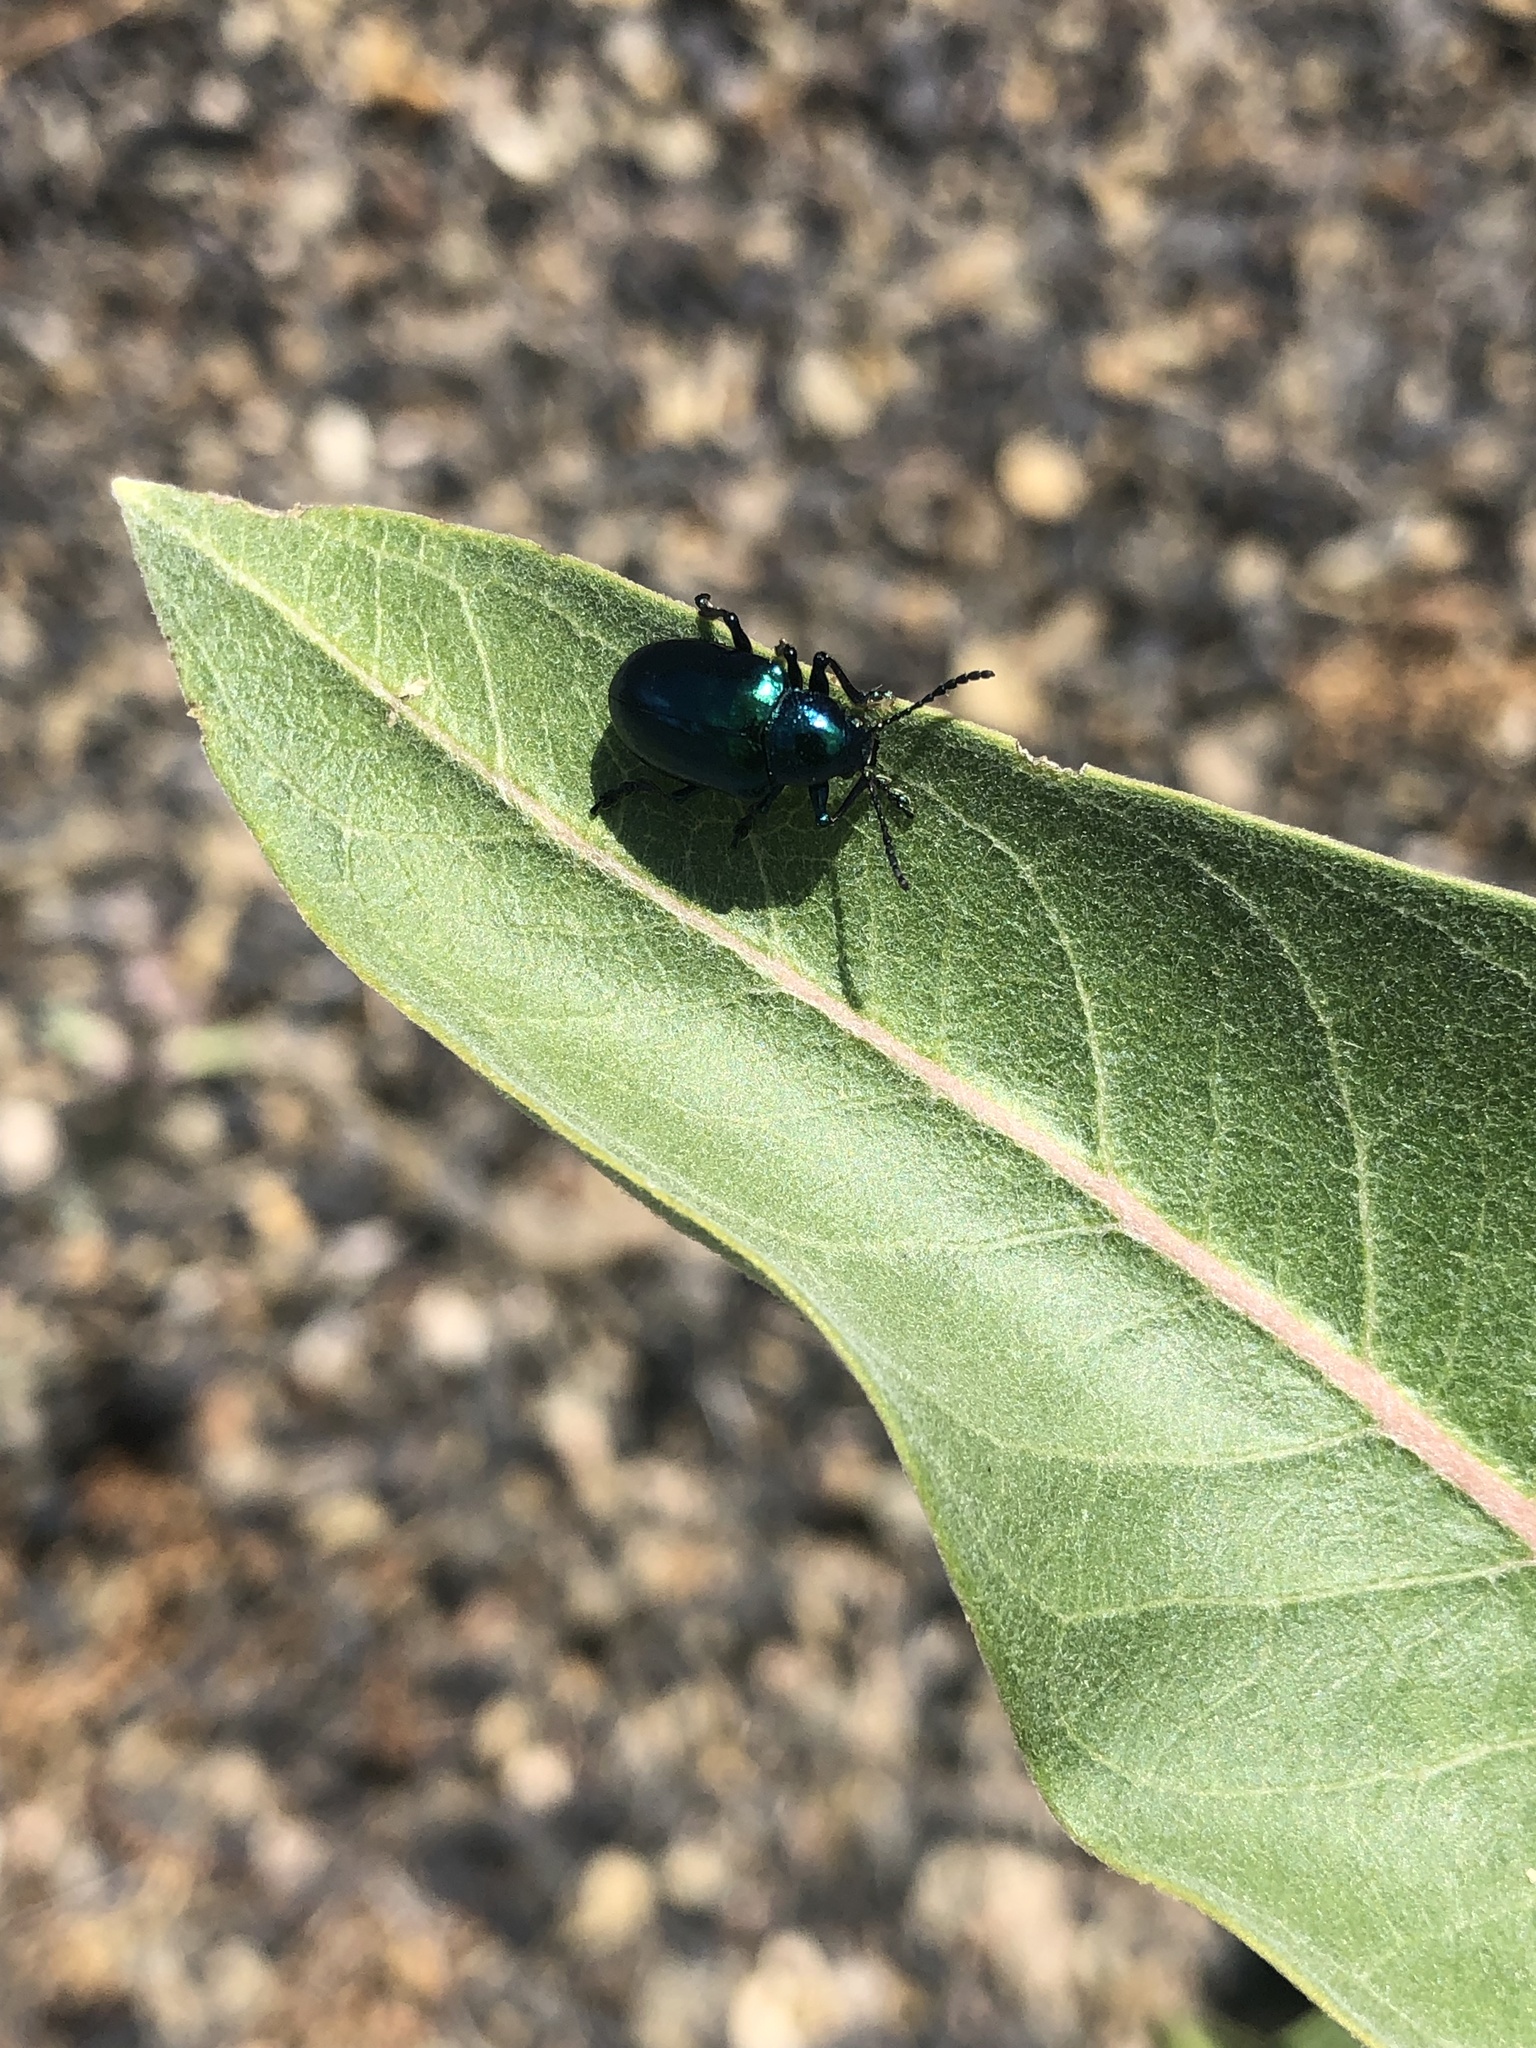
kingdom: Animalia
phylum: Arthropoda
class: Insecta
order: Coleoptera
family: Chrysomelidae
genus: Chrysochus
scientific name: Chrysochus cobaltinus
